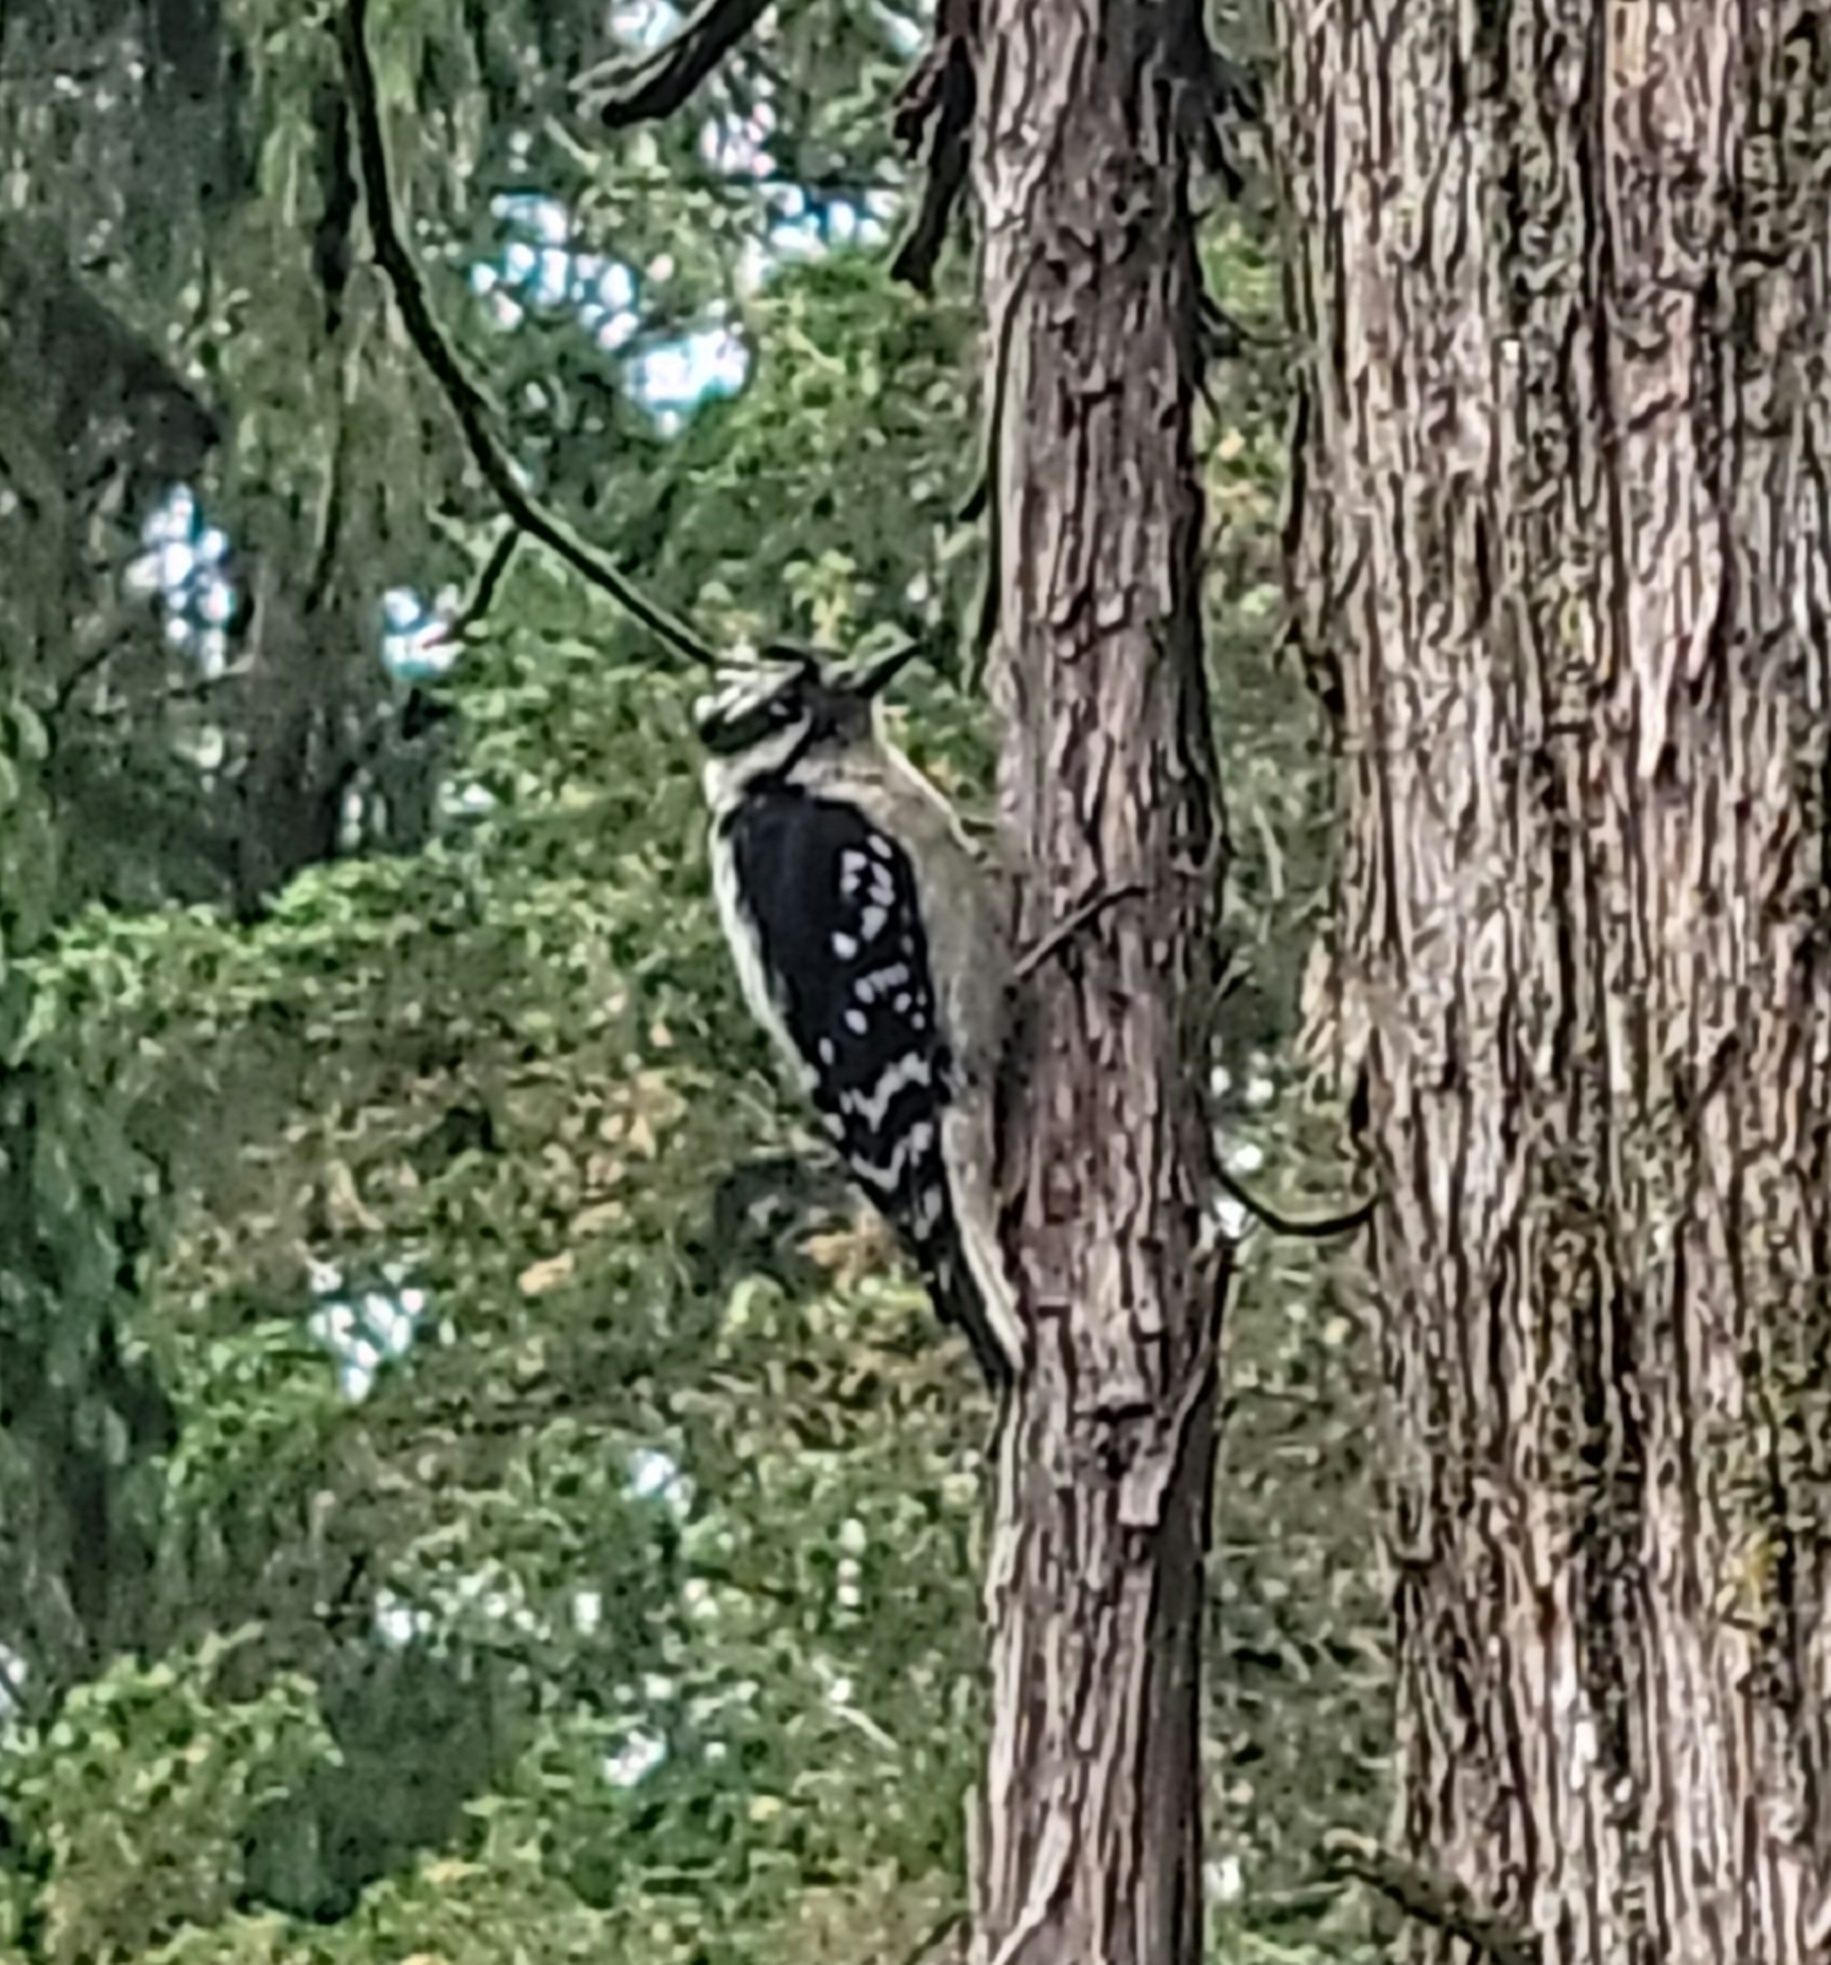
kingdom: Animalia
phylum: Chordata
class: Aves
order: Piciformes
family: Picidae
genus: Leuconotopicus
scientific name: Leuconotopicus villosus
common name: Hairy woodpecker
